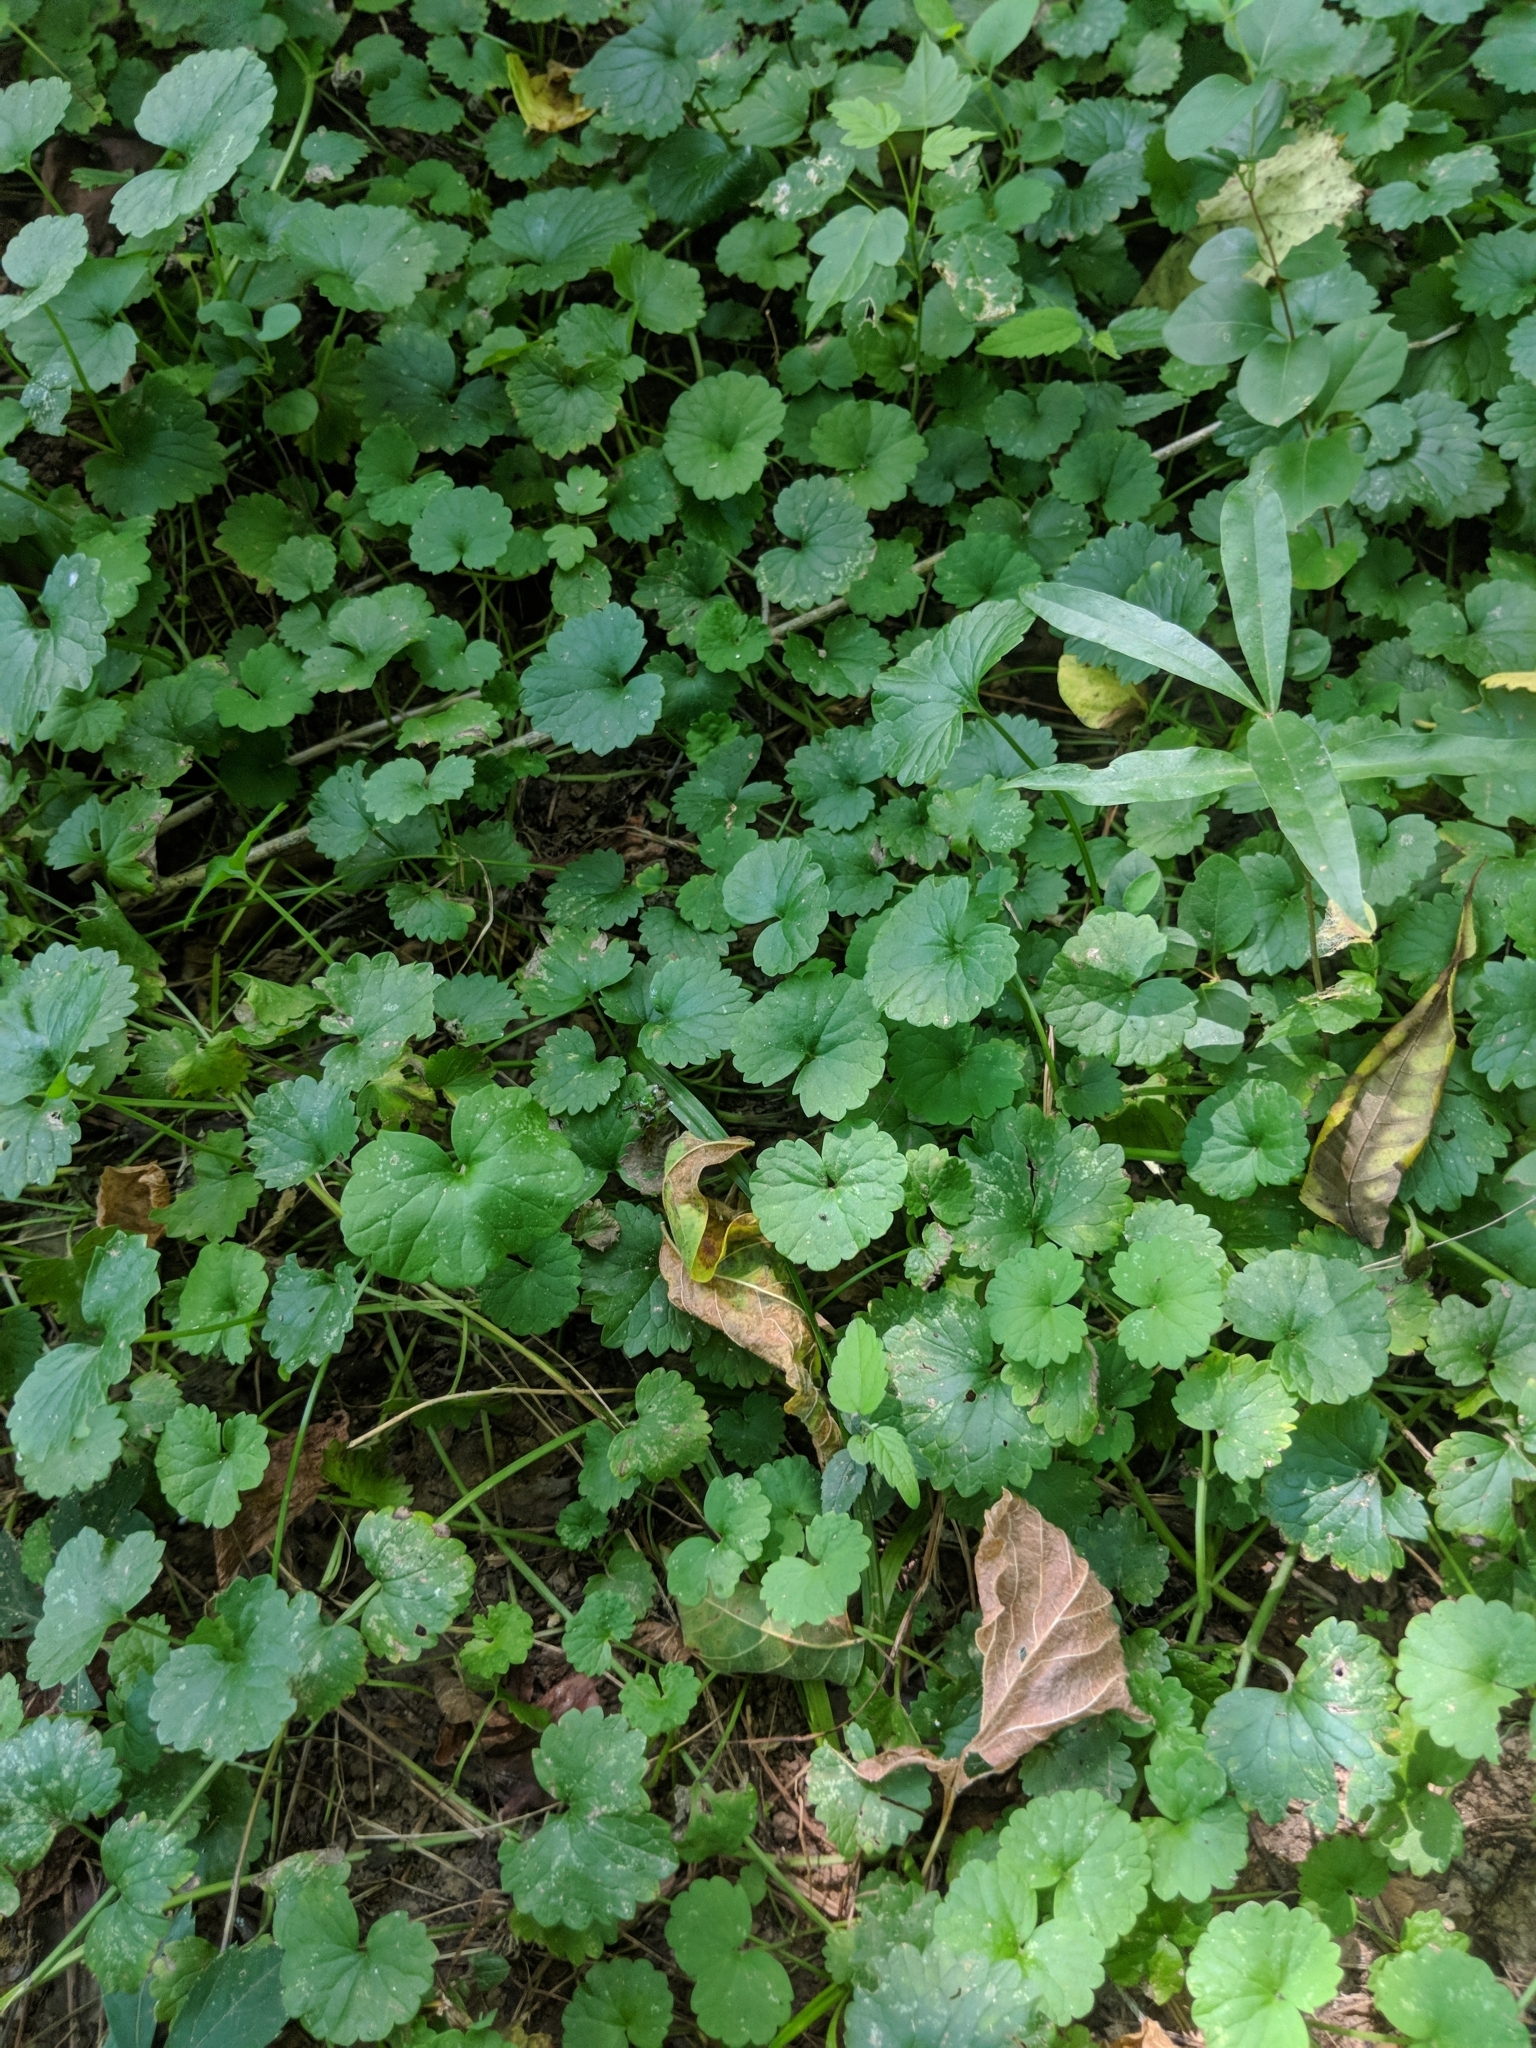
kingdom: Plantae
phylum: Tracheophyta
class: Magnoliopsida
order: Lamiales
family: Lamiaceae
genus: Glechoma
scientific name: Glechoma hederacea
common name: Ground ivy
